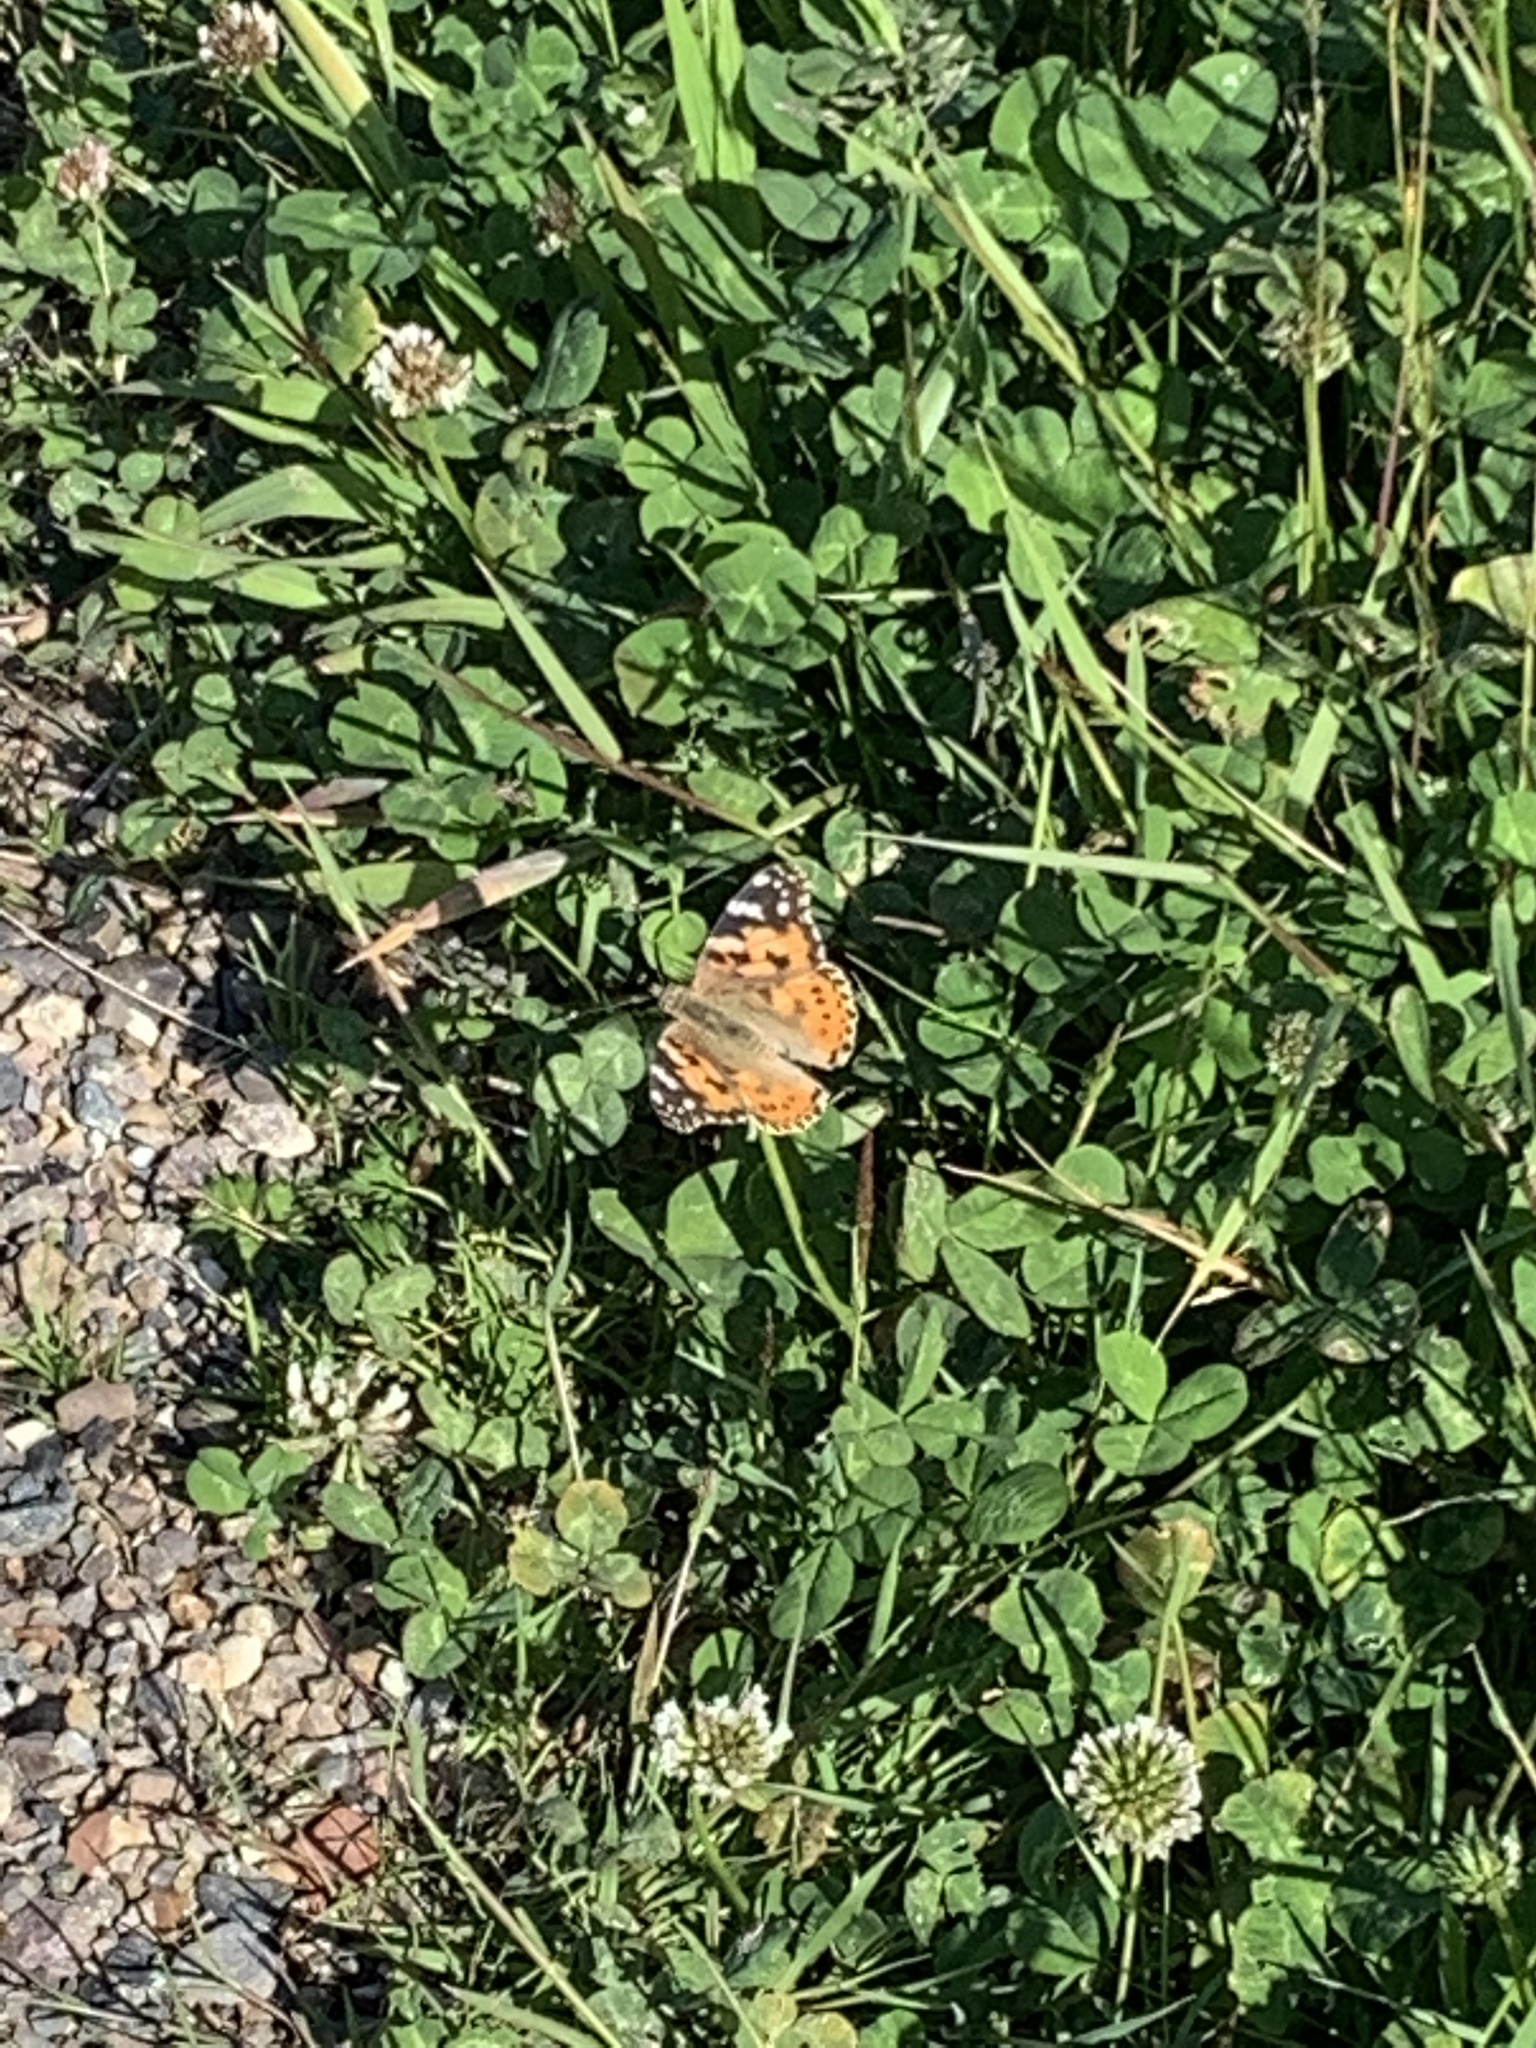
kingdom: Animalia
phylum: Arthropoda
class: Insecta
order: Lepidoptera
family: Nymphalidae
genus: Vanessa
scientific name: Vanessa cardui
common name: Painted lady
